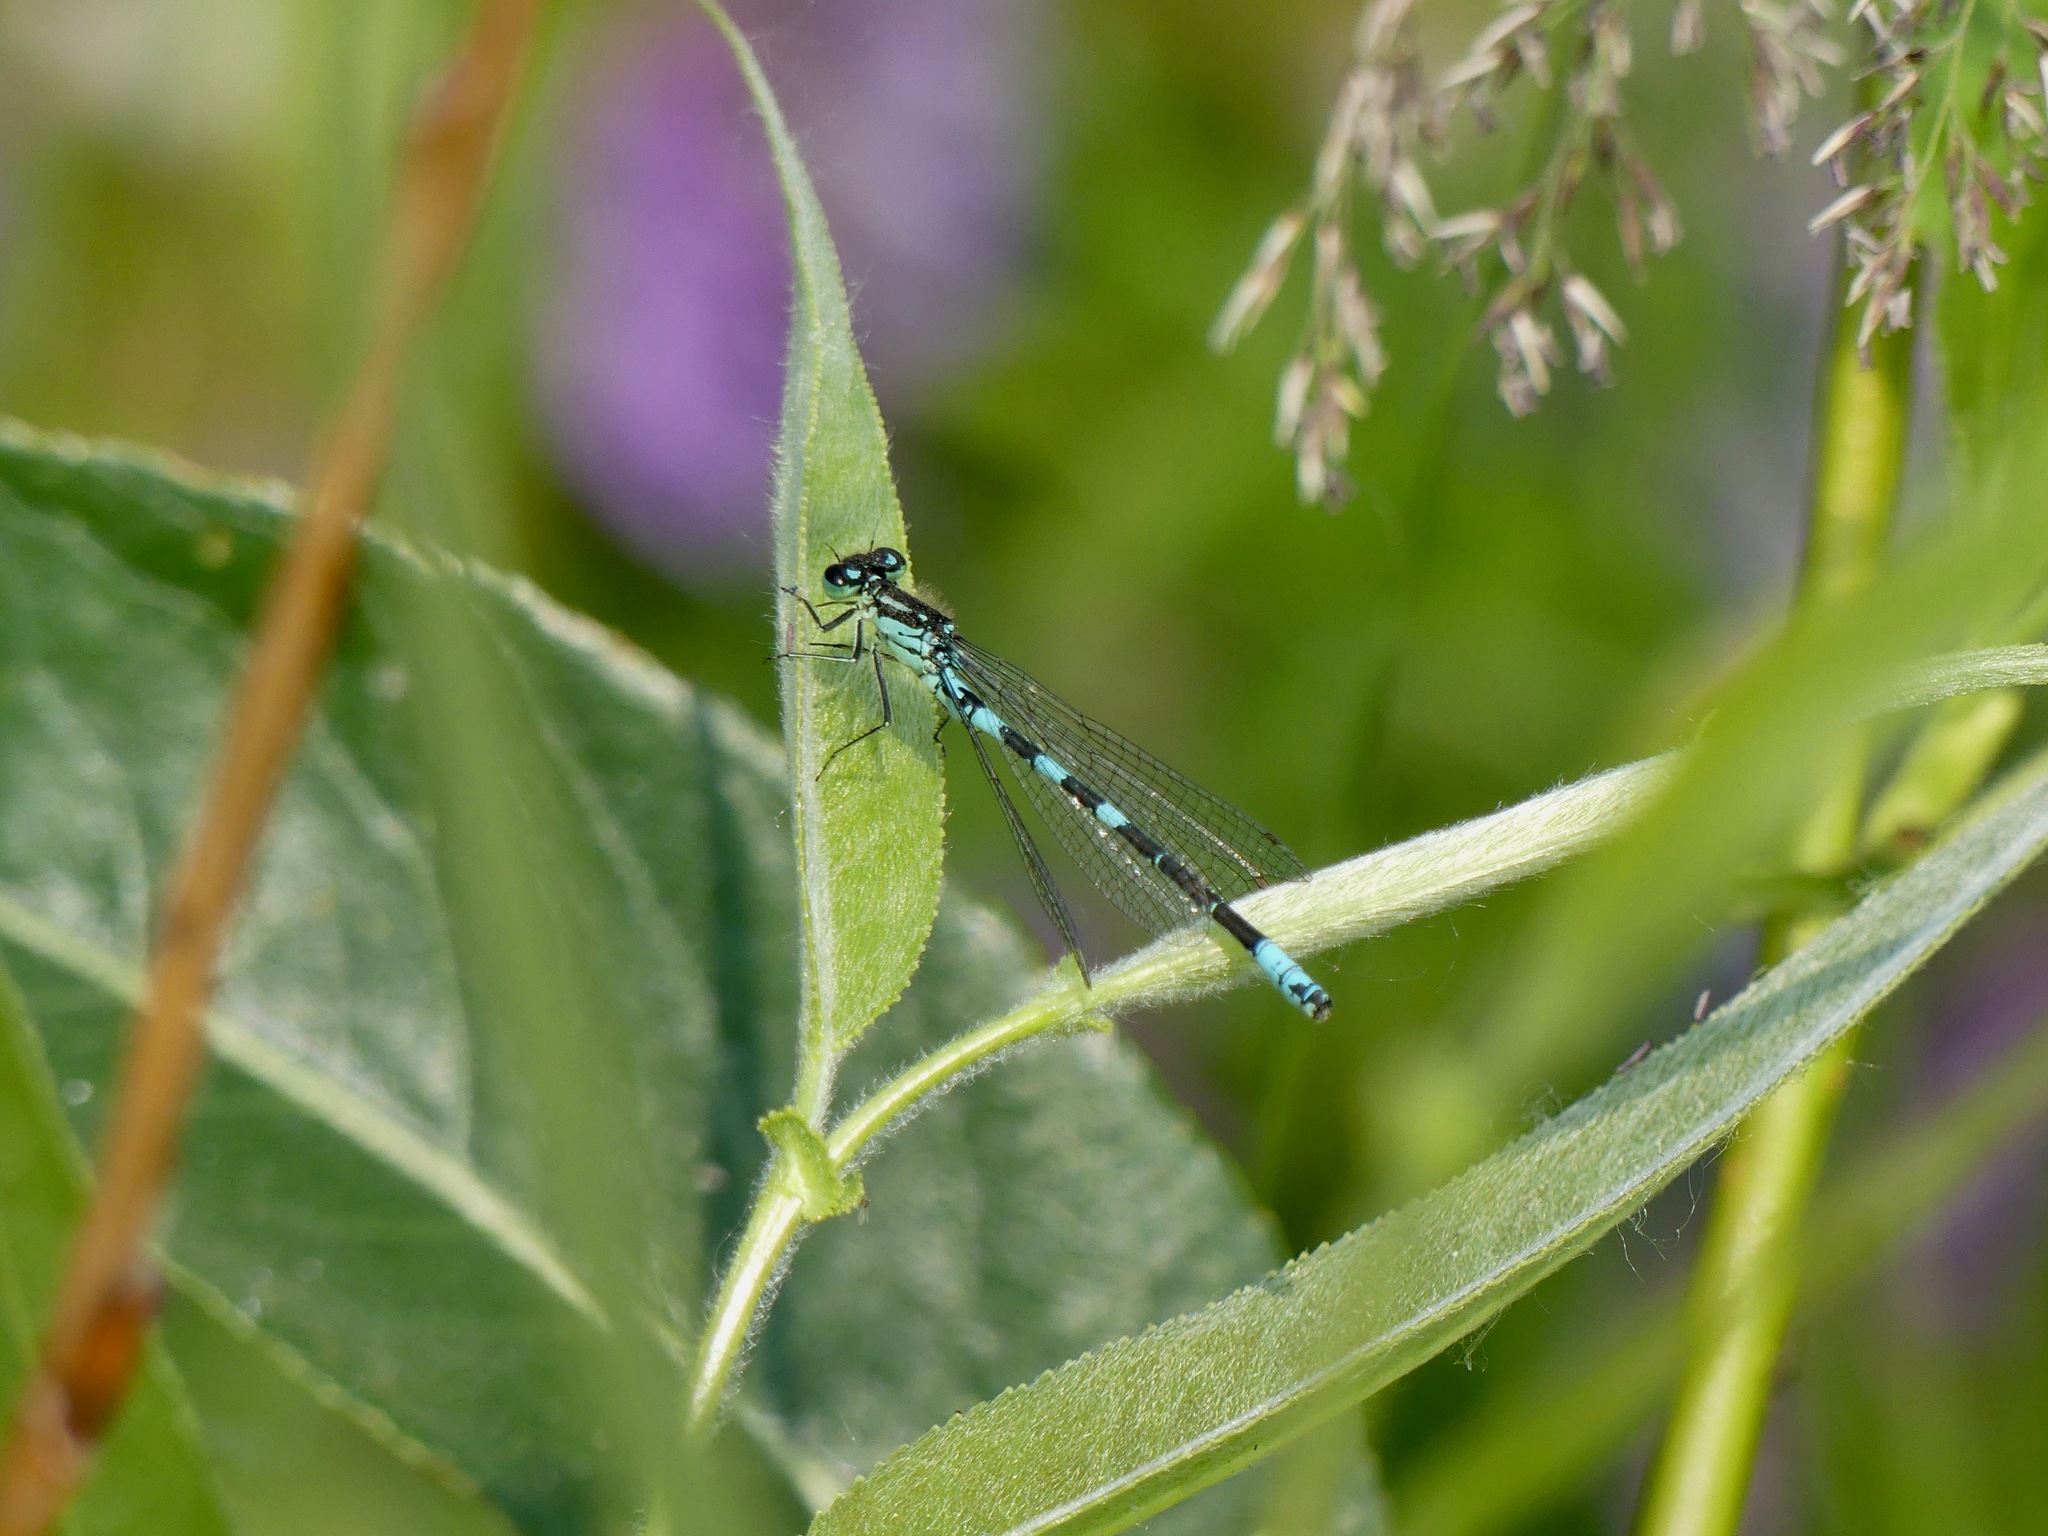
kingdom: Animalia
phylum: Arthropoda
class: Insecta
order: Odonata
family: Coenagrionidae
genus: Coenagrion
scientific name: Coenagrion resolutum
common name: Taiga bluet
